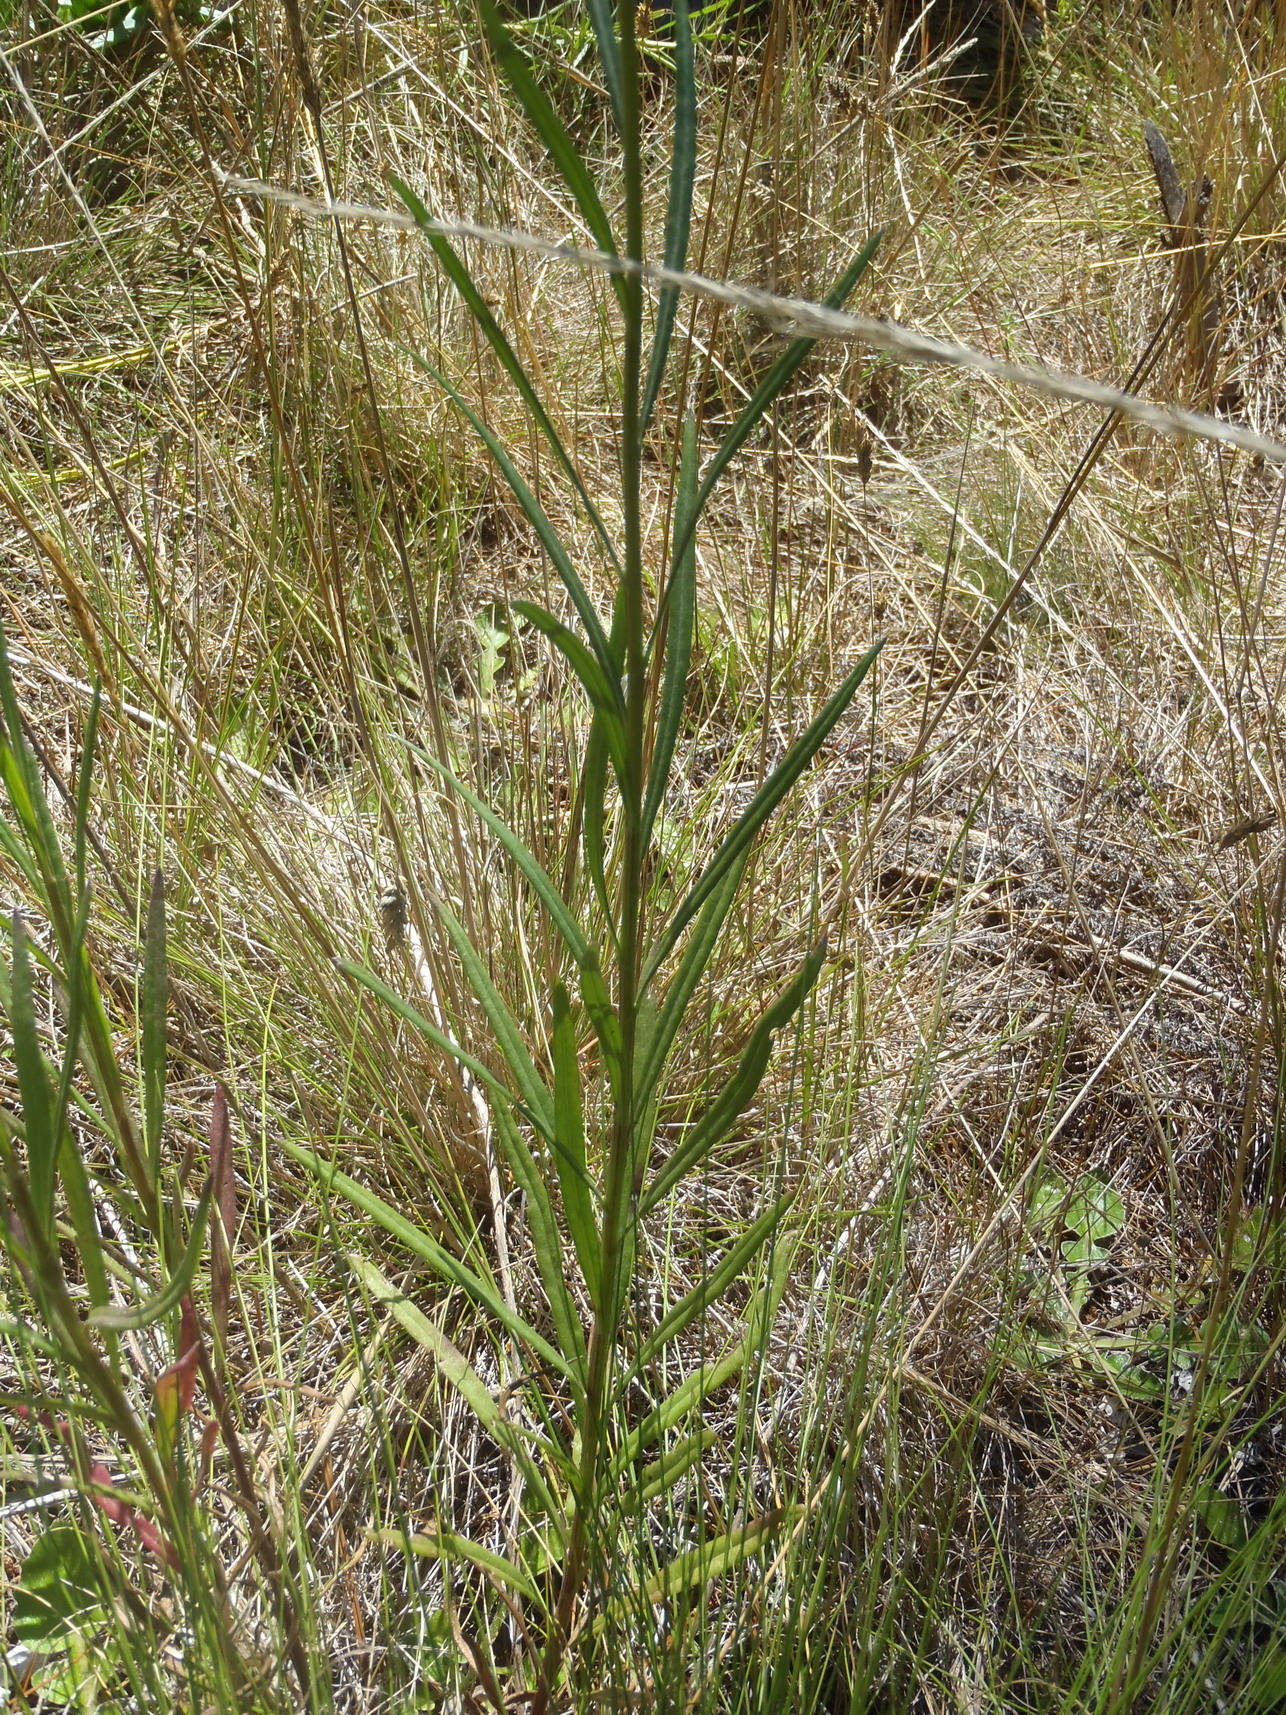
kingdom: Plantae
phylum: Tracheophyta
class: Magnoliopsida
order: Asterales
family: Asteraceae
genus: Senecio
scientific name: Senecio burchellii
